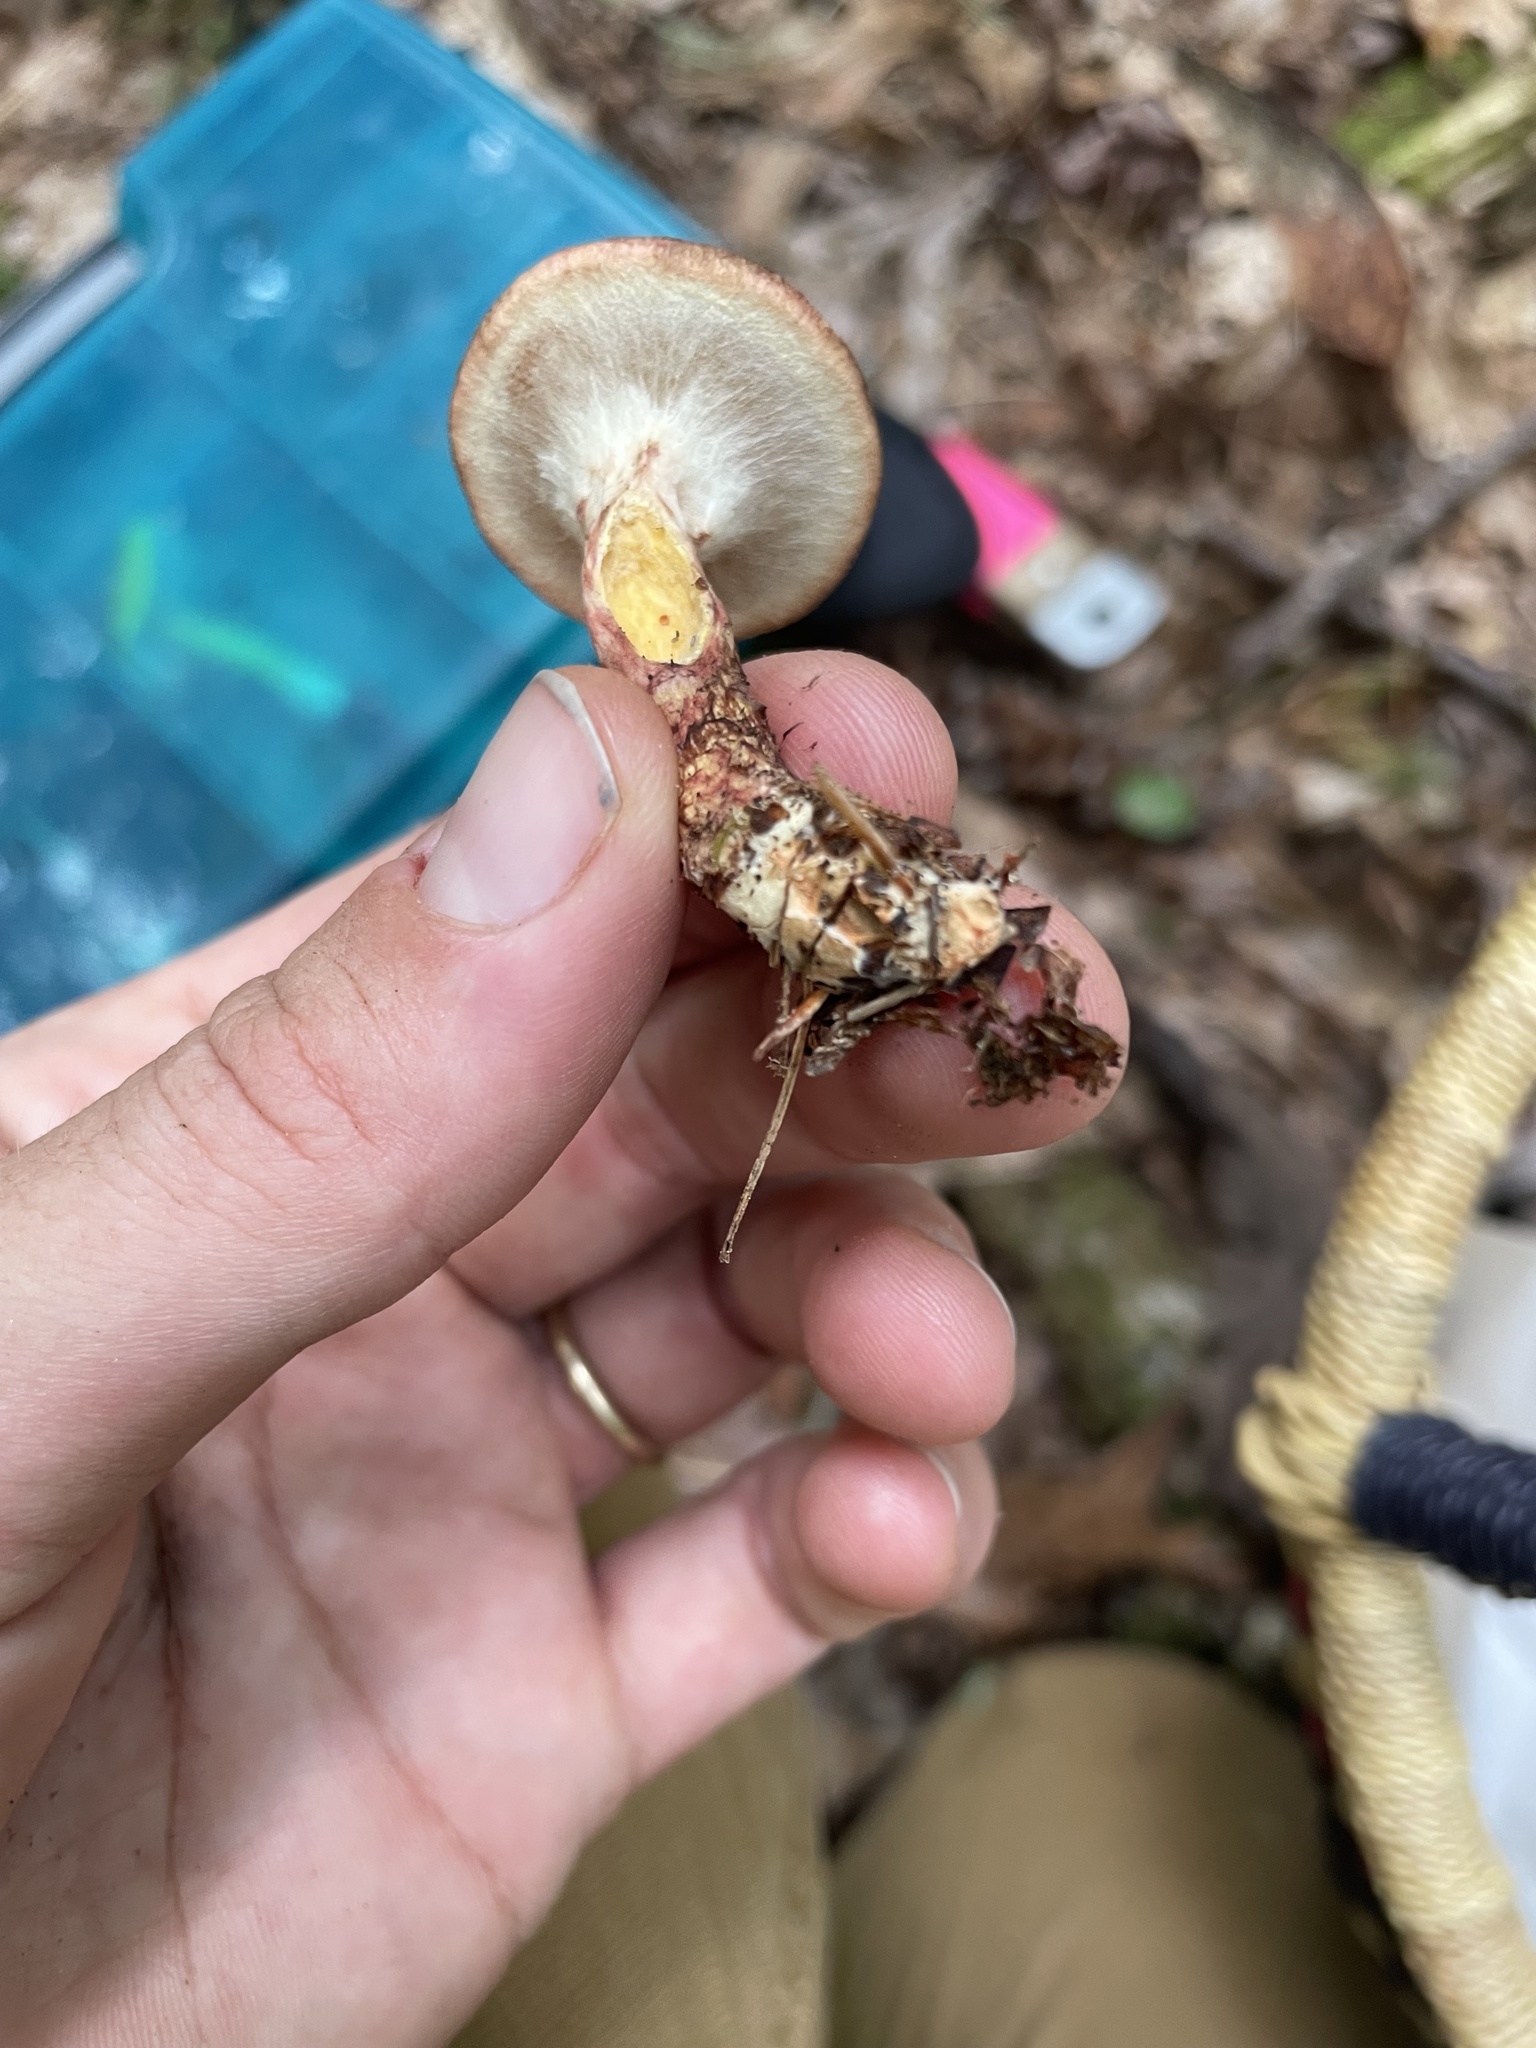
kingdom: Fungi
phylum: Basidiomycota
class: Agaricomycetes
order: Boletales
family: Suillaceae
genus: Suillus
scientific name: Suillus spraguei
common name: Painted suillus
